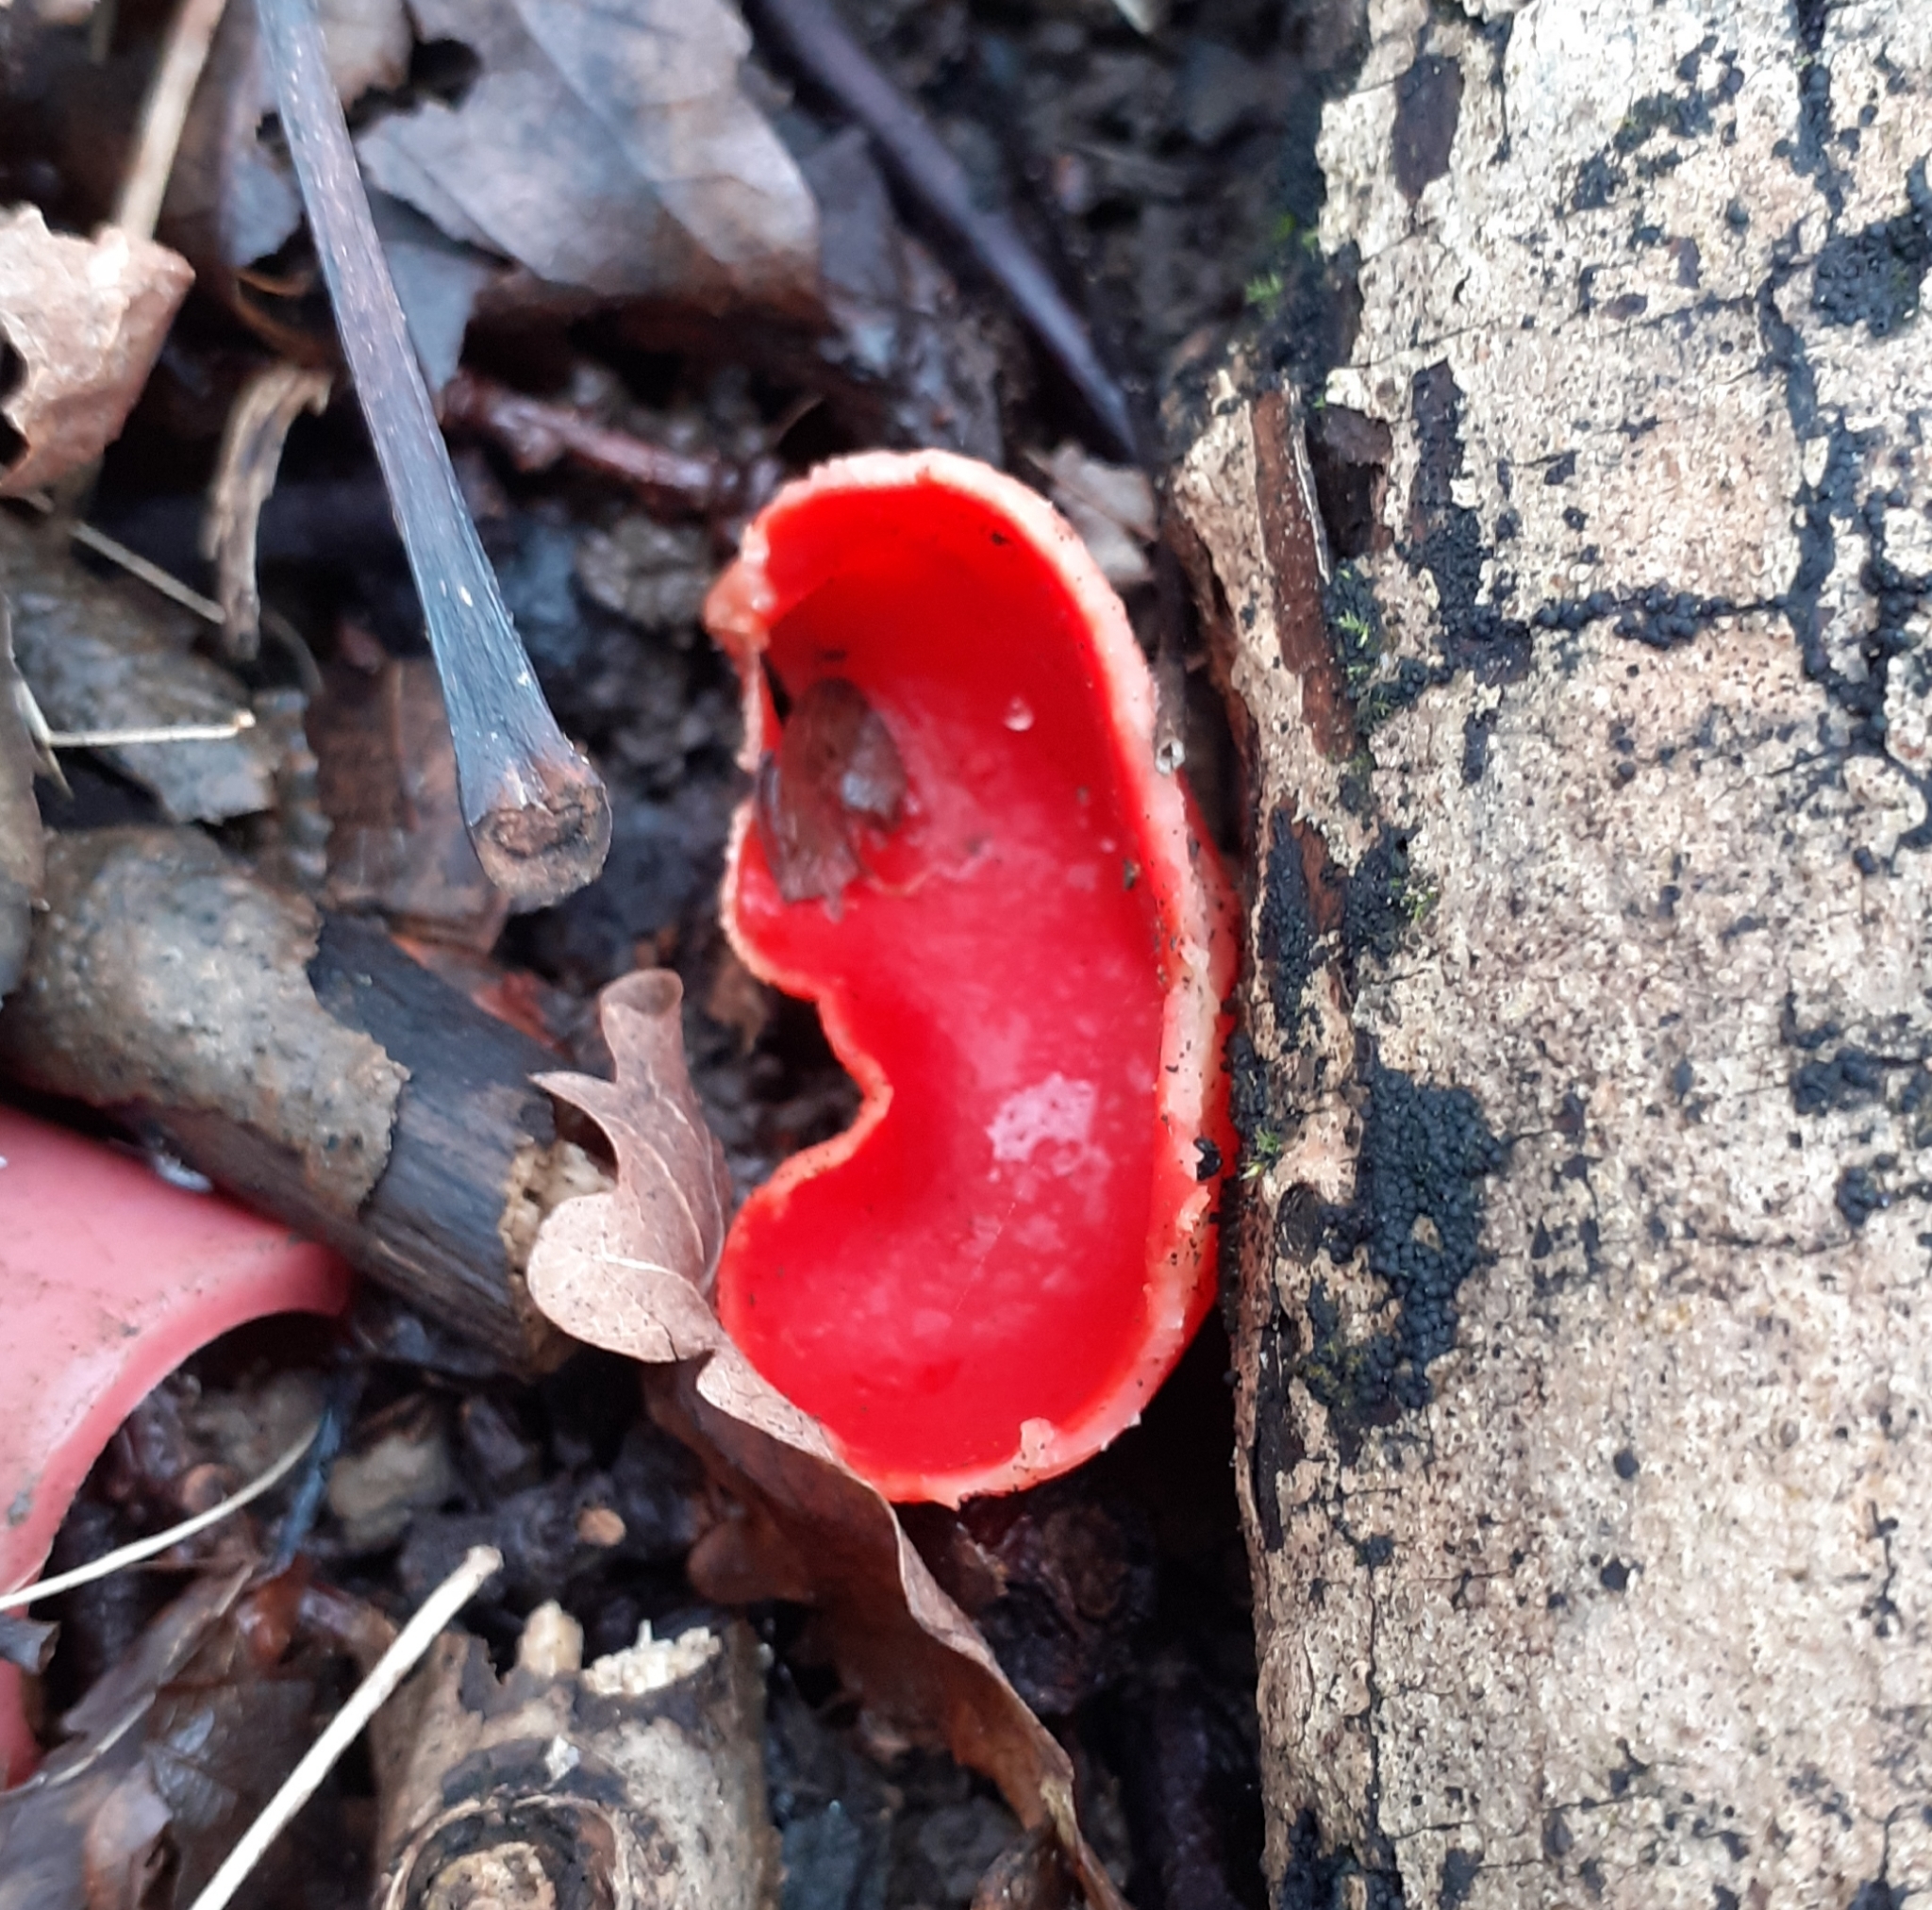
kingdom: Fungi
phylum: Ascomycota
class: Pezizomycetes
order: Pezizales
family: Sarcoscyphaceae
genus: Sarcoscypha
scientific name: Sarcoscypha
